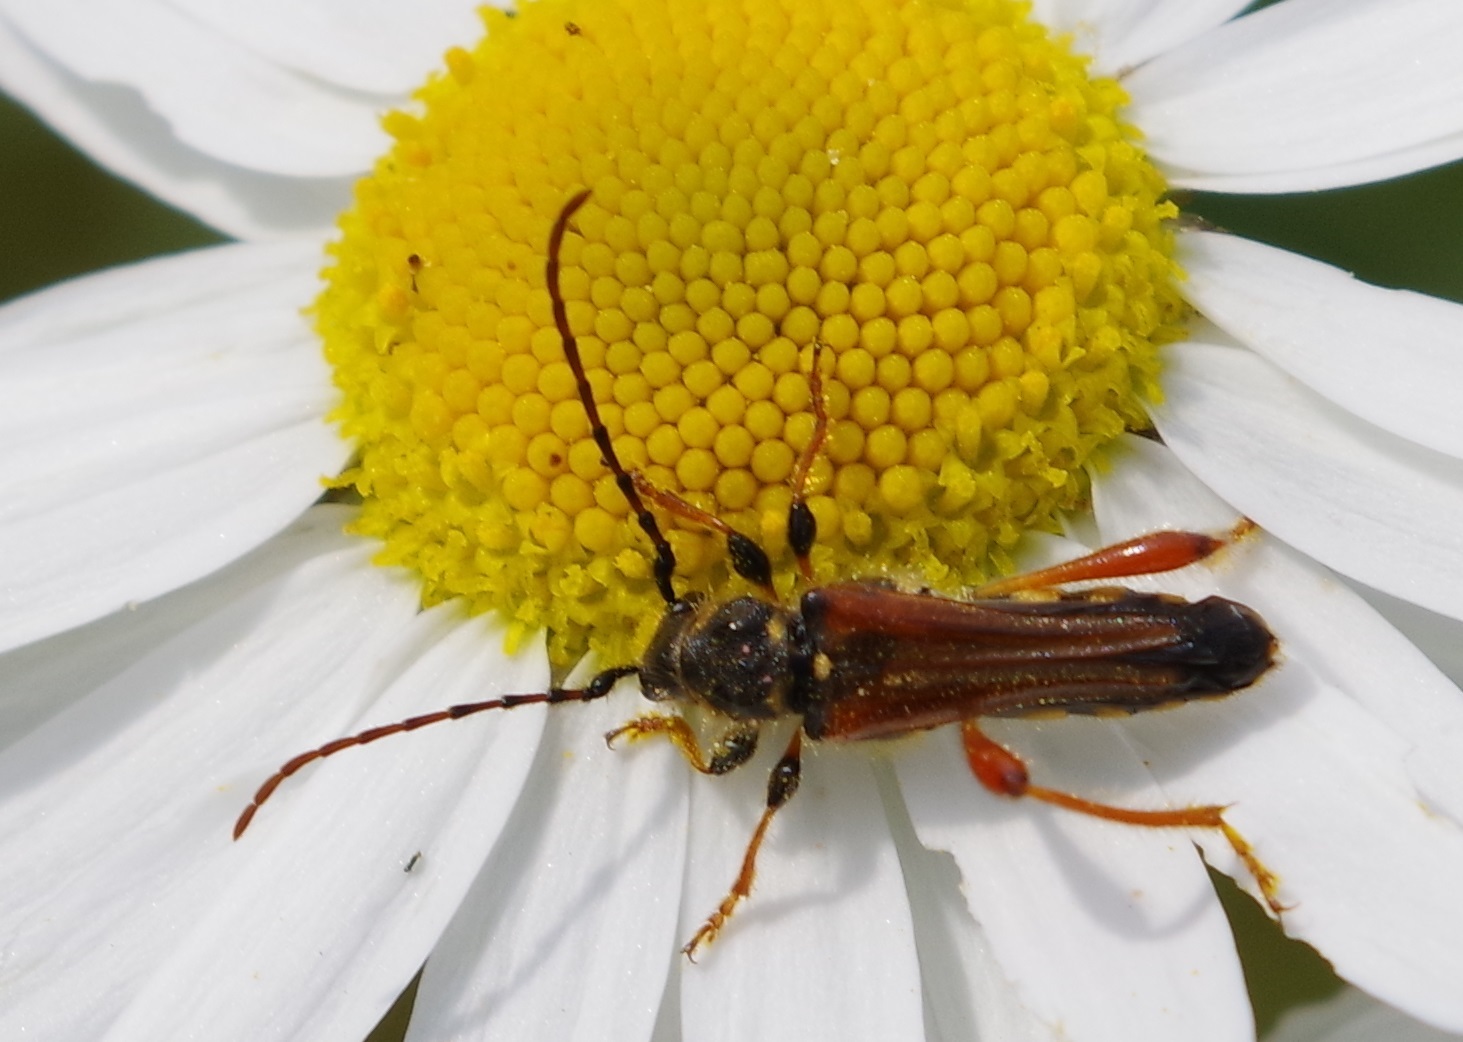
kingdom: Animalia
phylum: Arthropoda
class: Insecta
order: Coleoptera
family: Cerambycidae
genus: Stenopterus
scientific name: Stenopterus rufus
